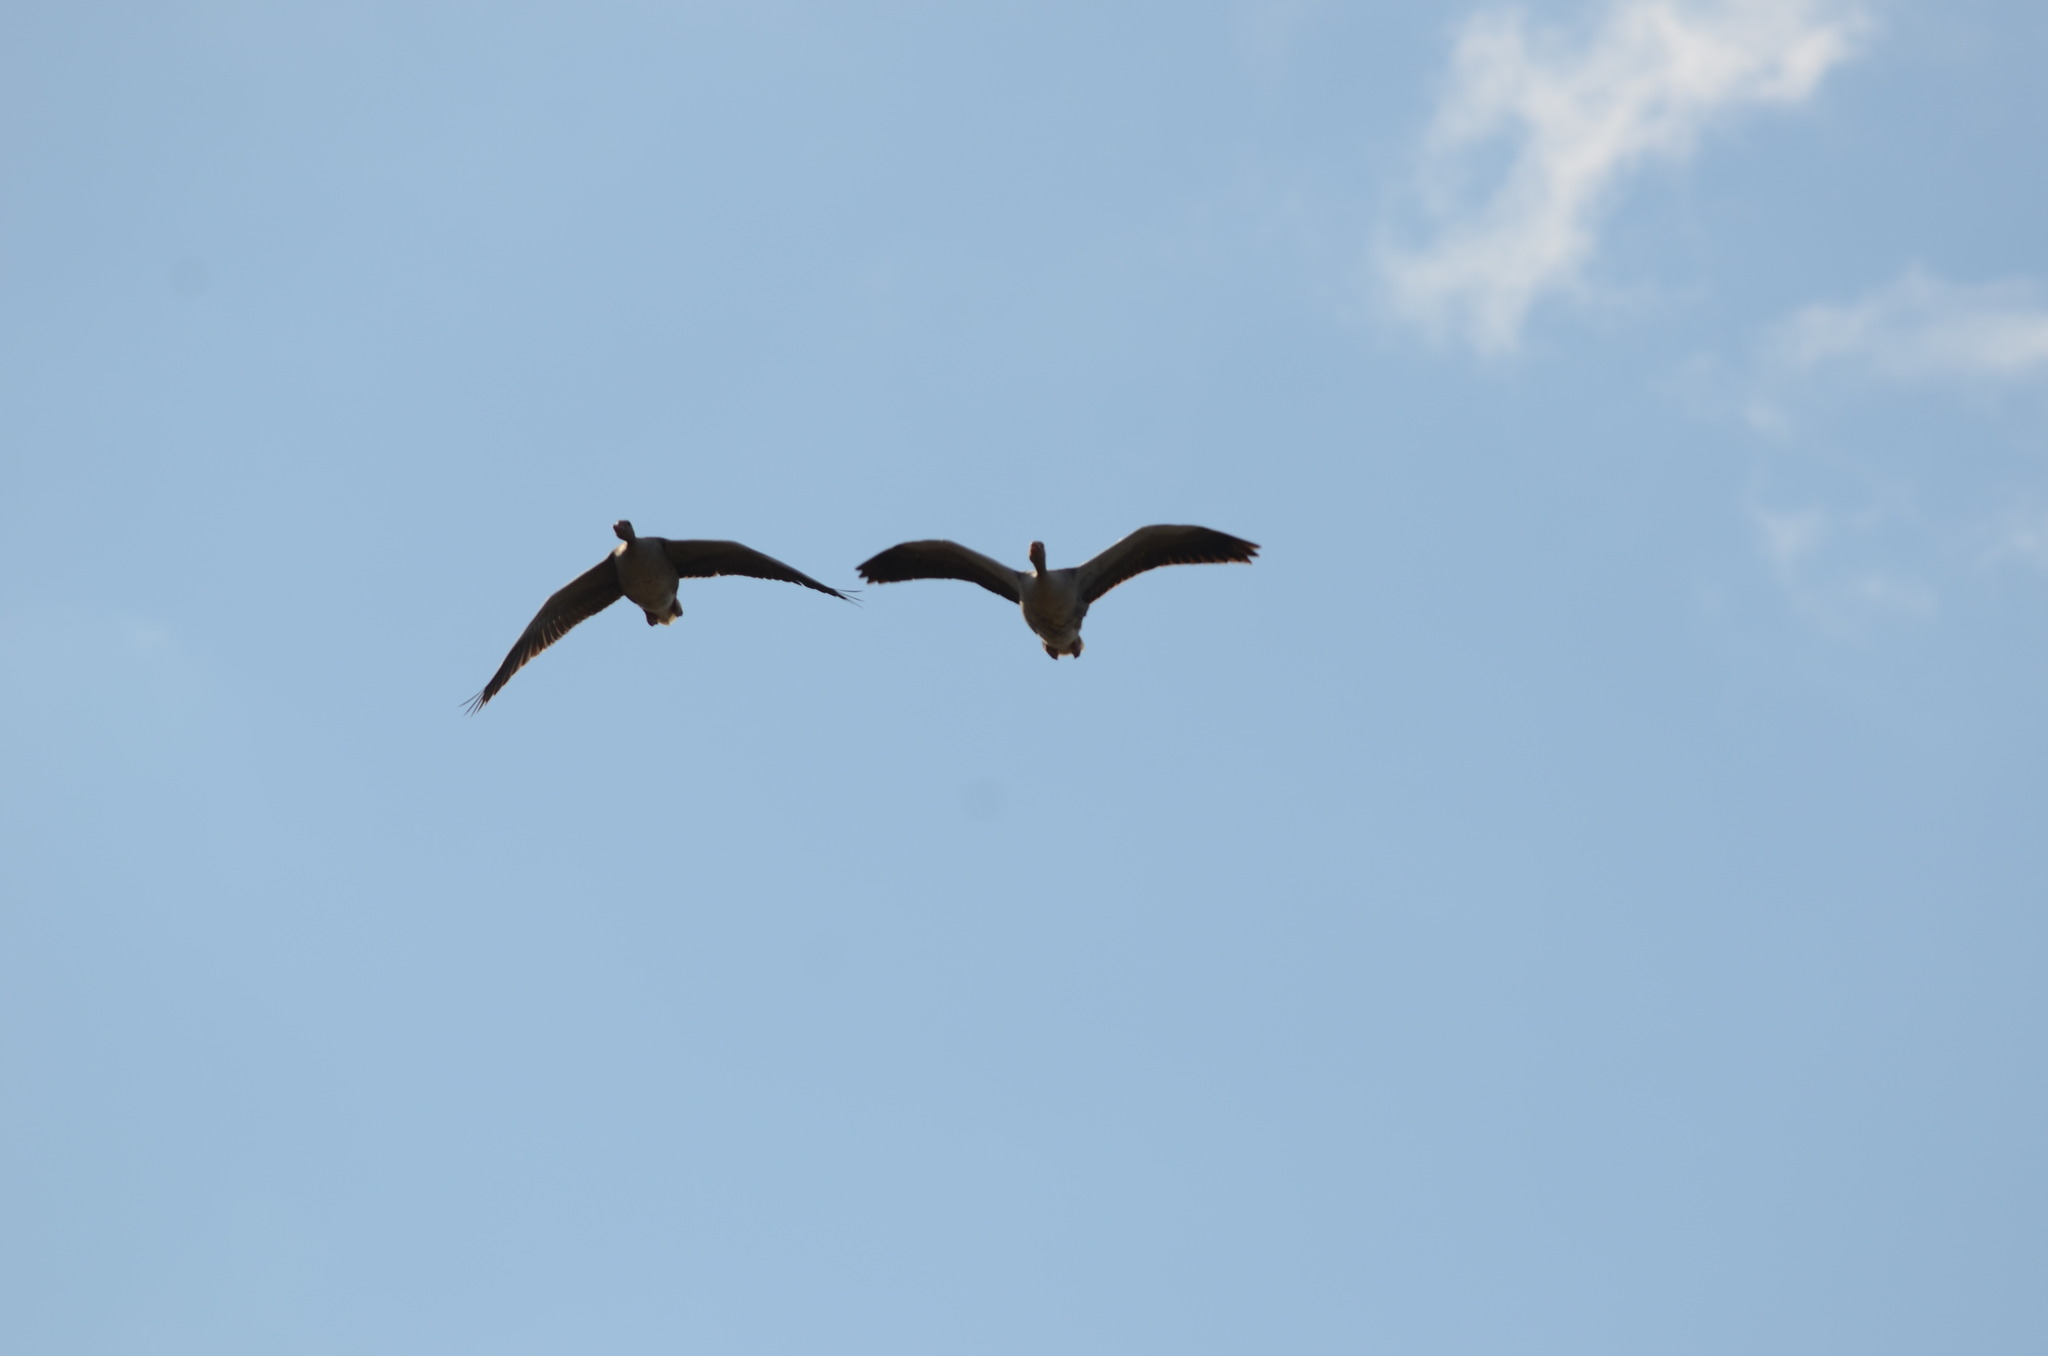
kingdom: Animalia
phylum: Chordata
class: Aves
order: Anseriformes
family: Anatidae
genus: Anser
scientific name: Anser anser
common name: Greylag goose
